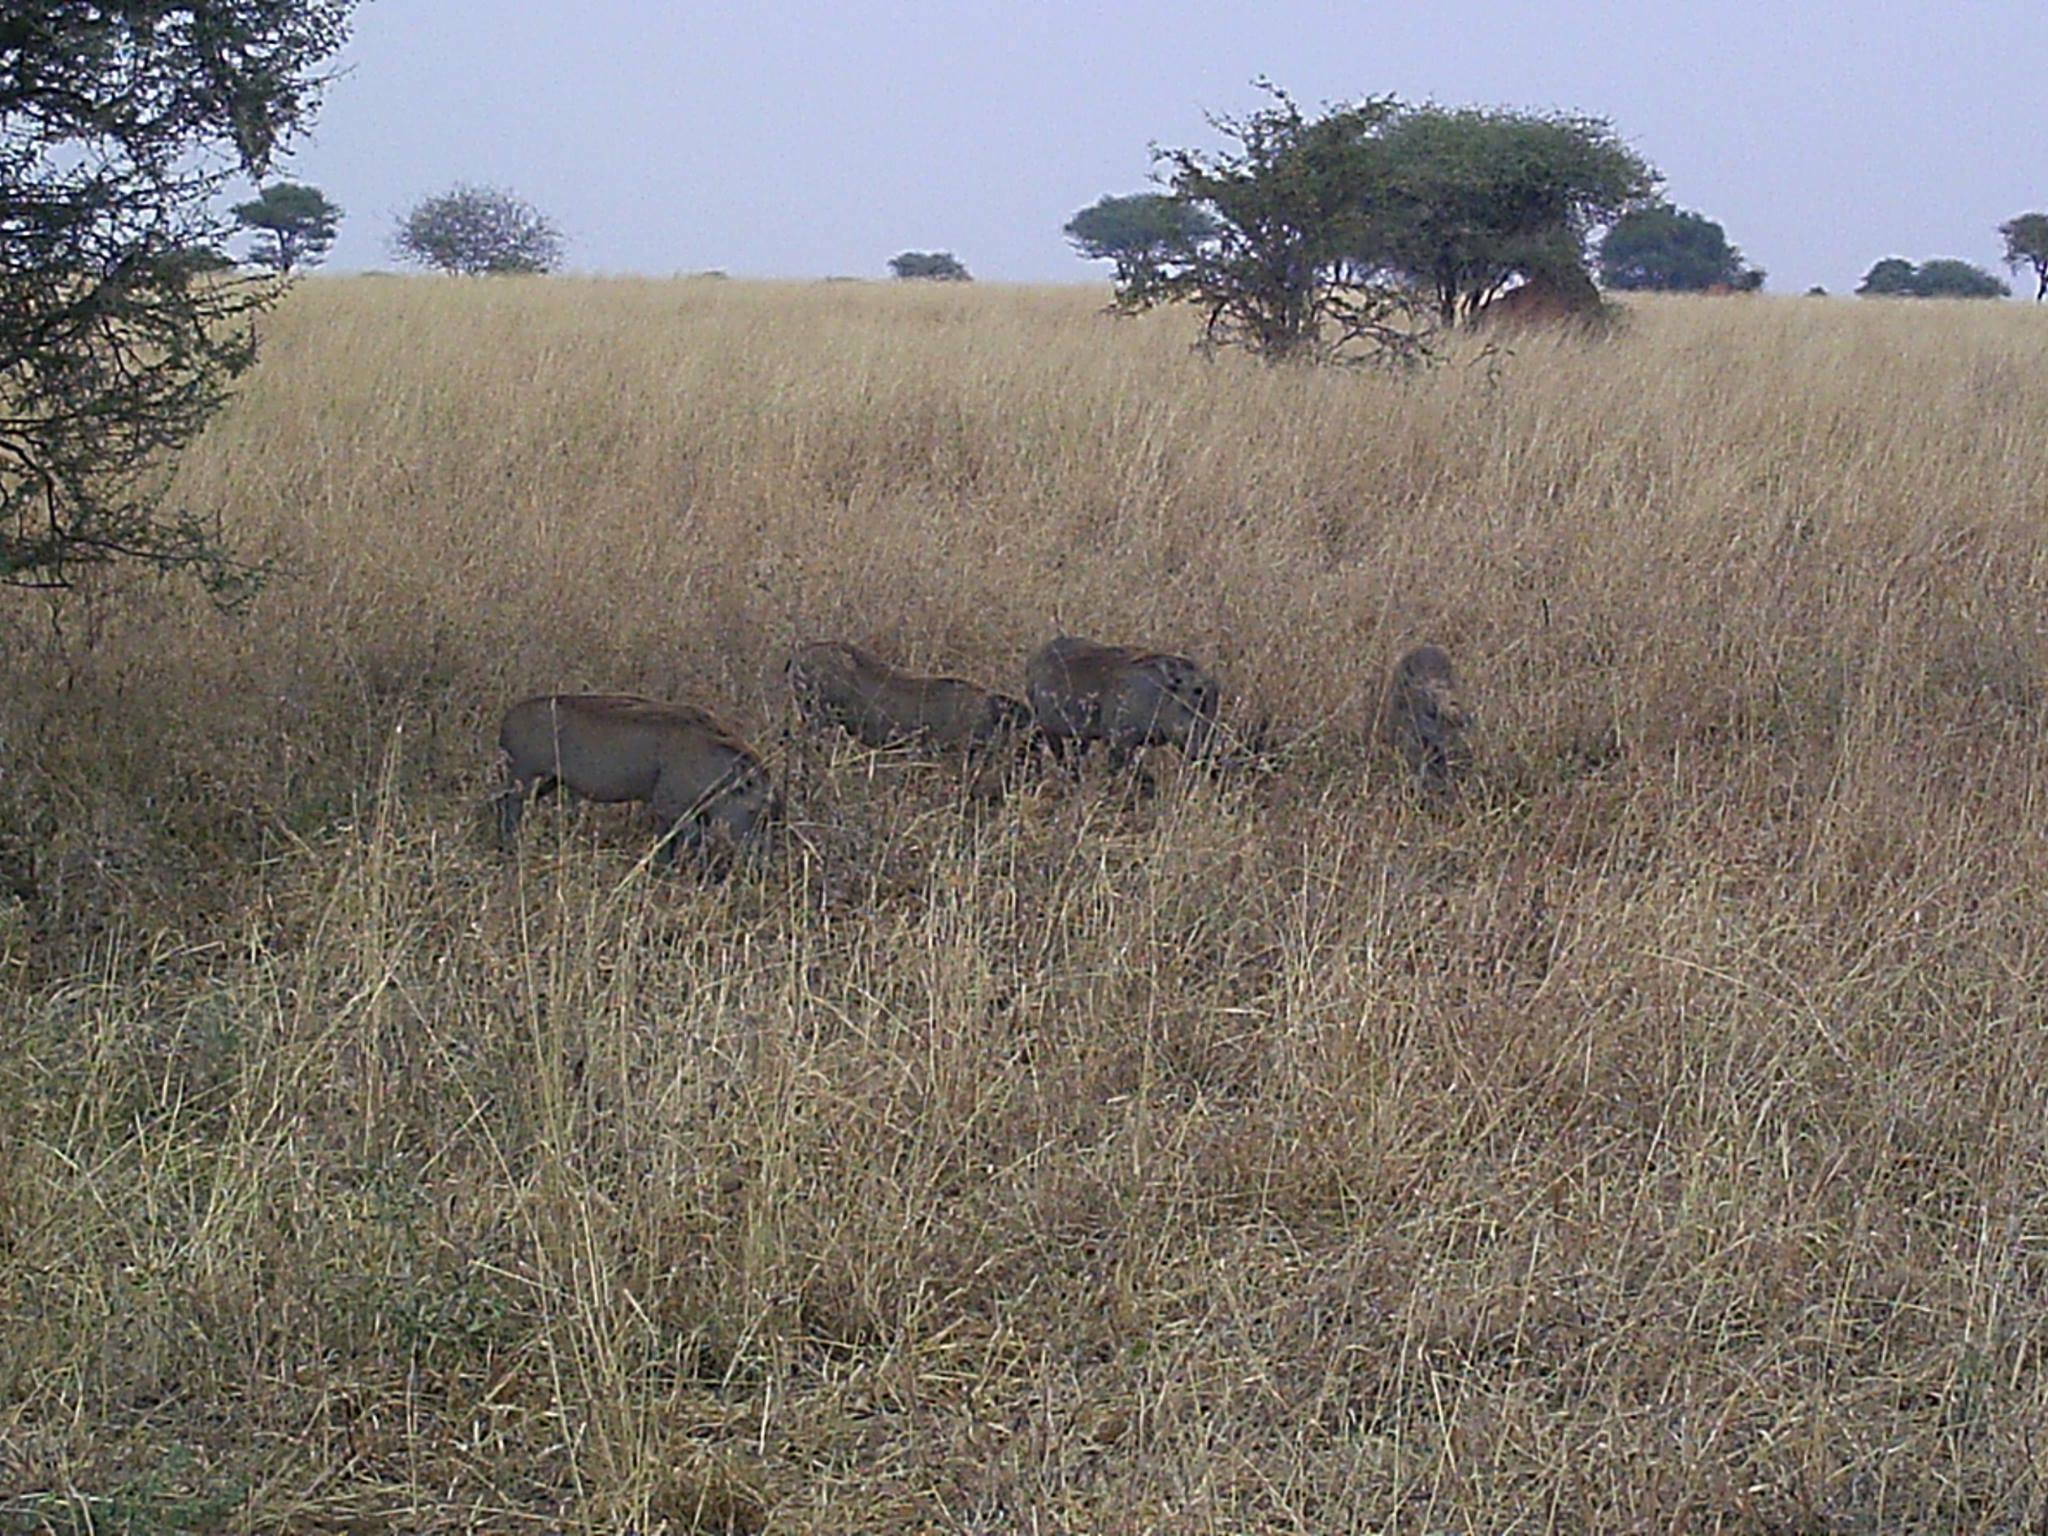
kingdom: Animalia
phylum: Chordata
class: Mammalia
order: Artiodactyla
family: Suidae
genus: Phacochoerus
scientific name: Phacochoerus africanus
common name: Common warthog
